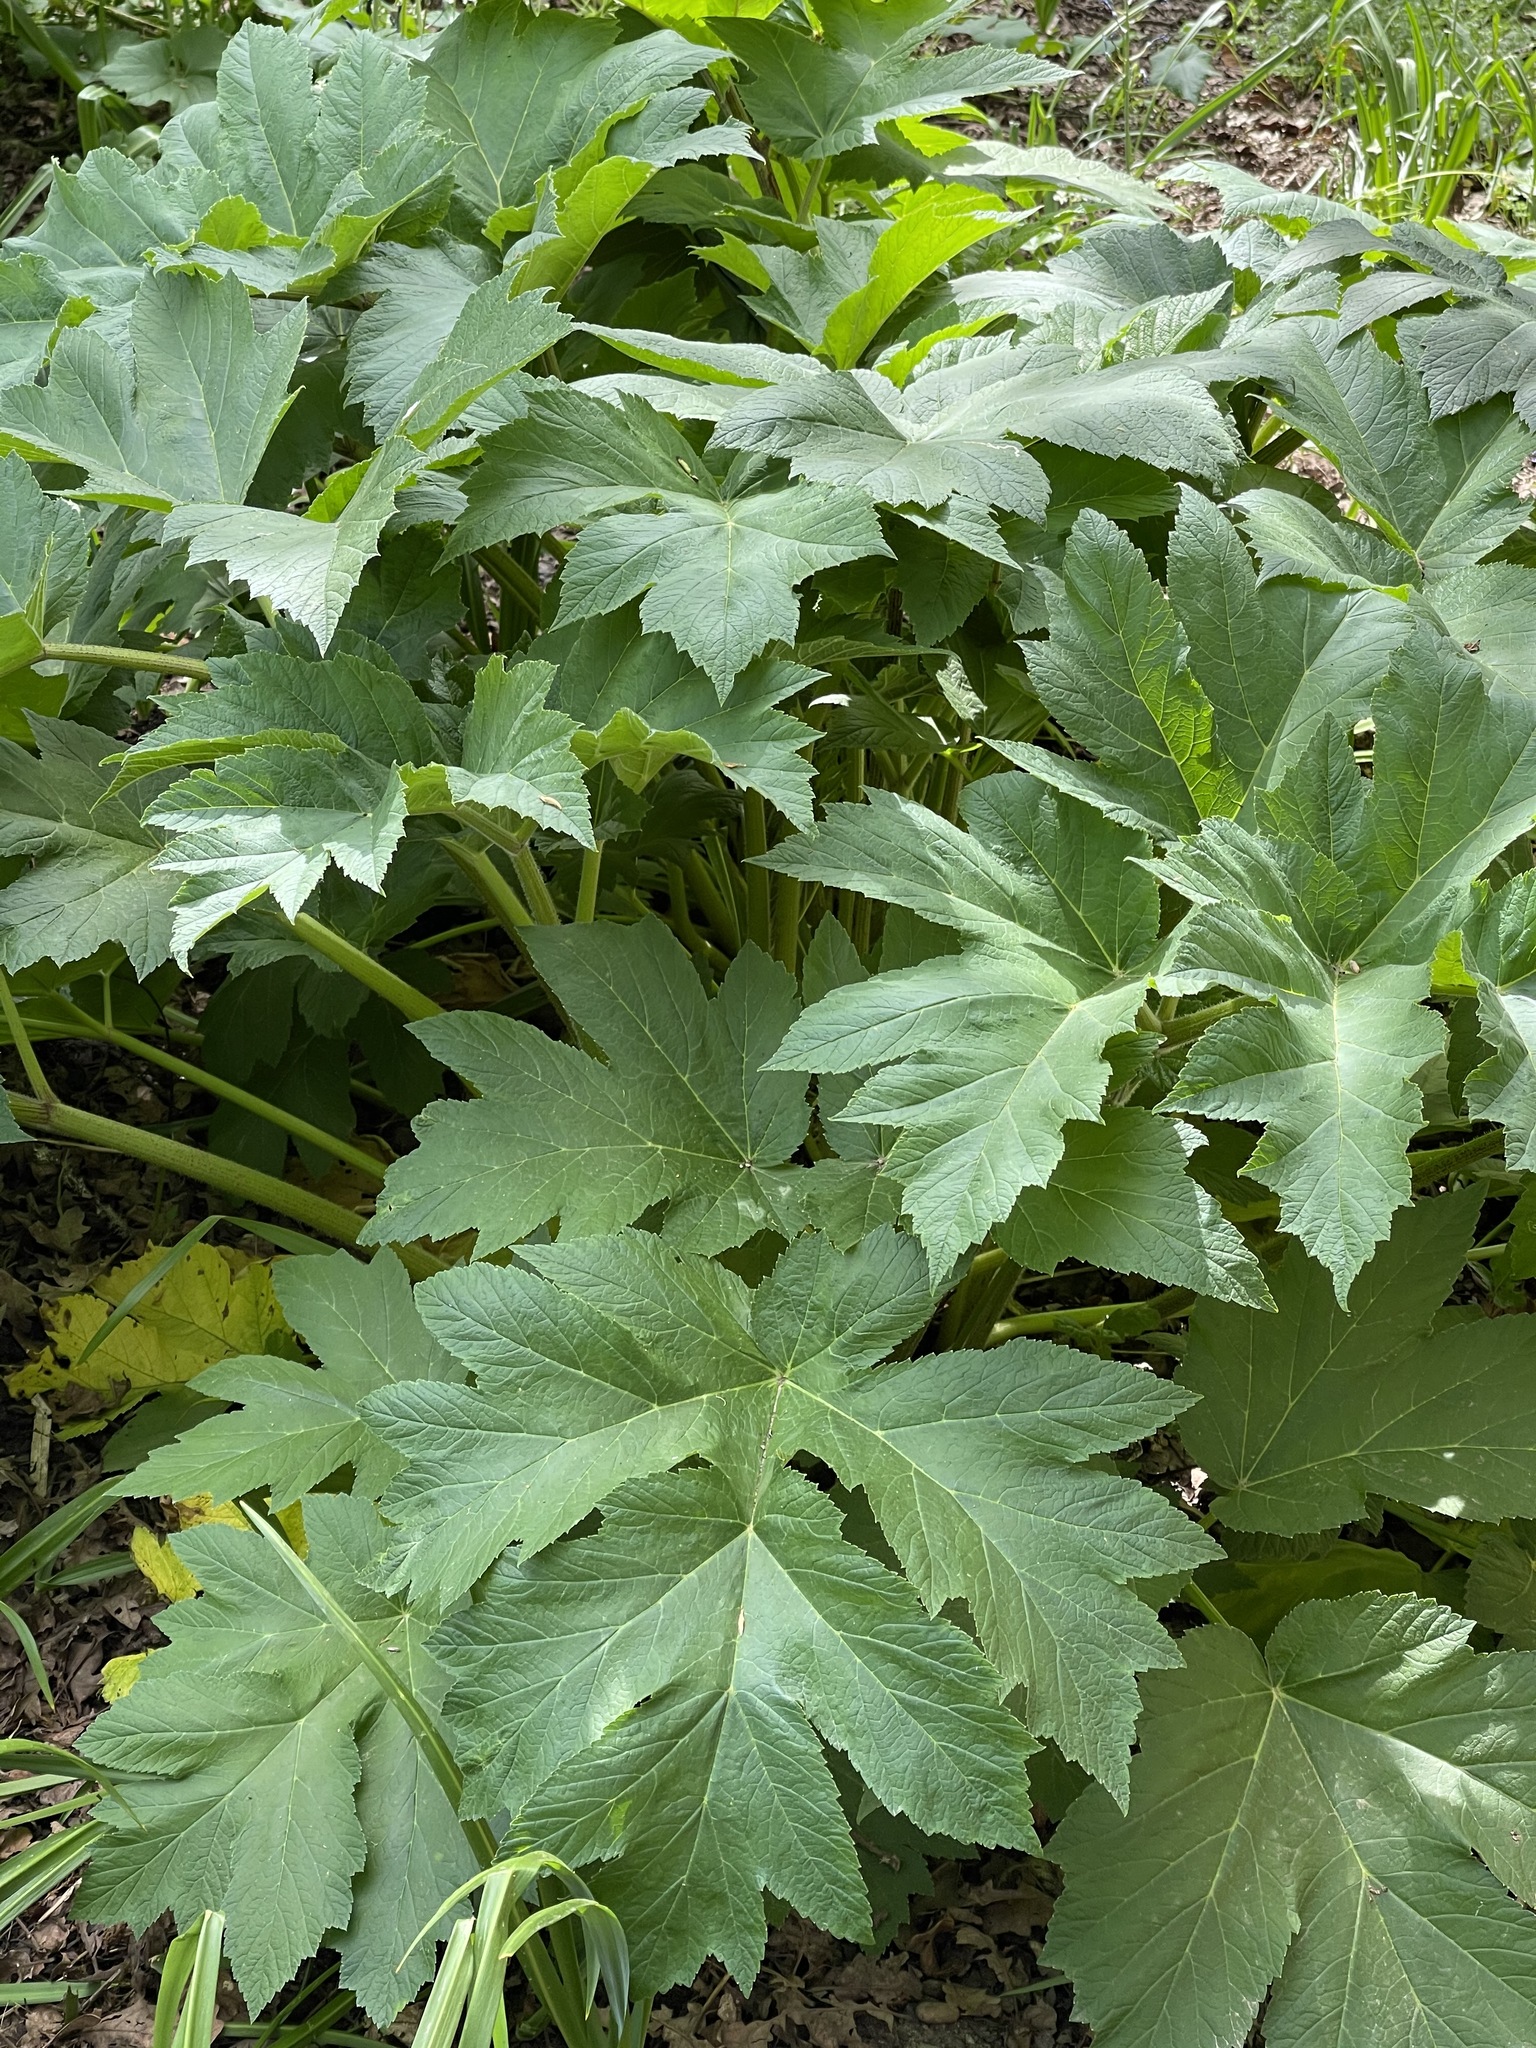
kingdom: Plantae
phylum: Tracheophyta
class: Magnoliopsida
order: Apiales
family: Apiaceae
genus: Heracleum
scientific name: Heracleum maximum
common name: American cow parsnip
